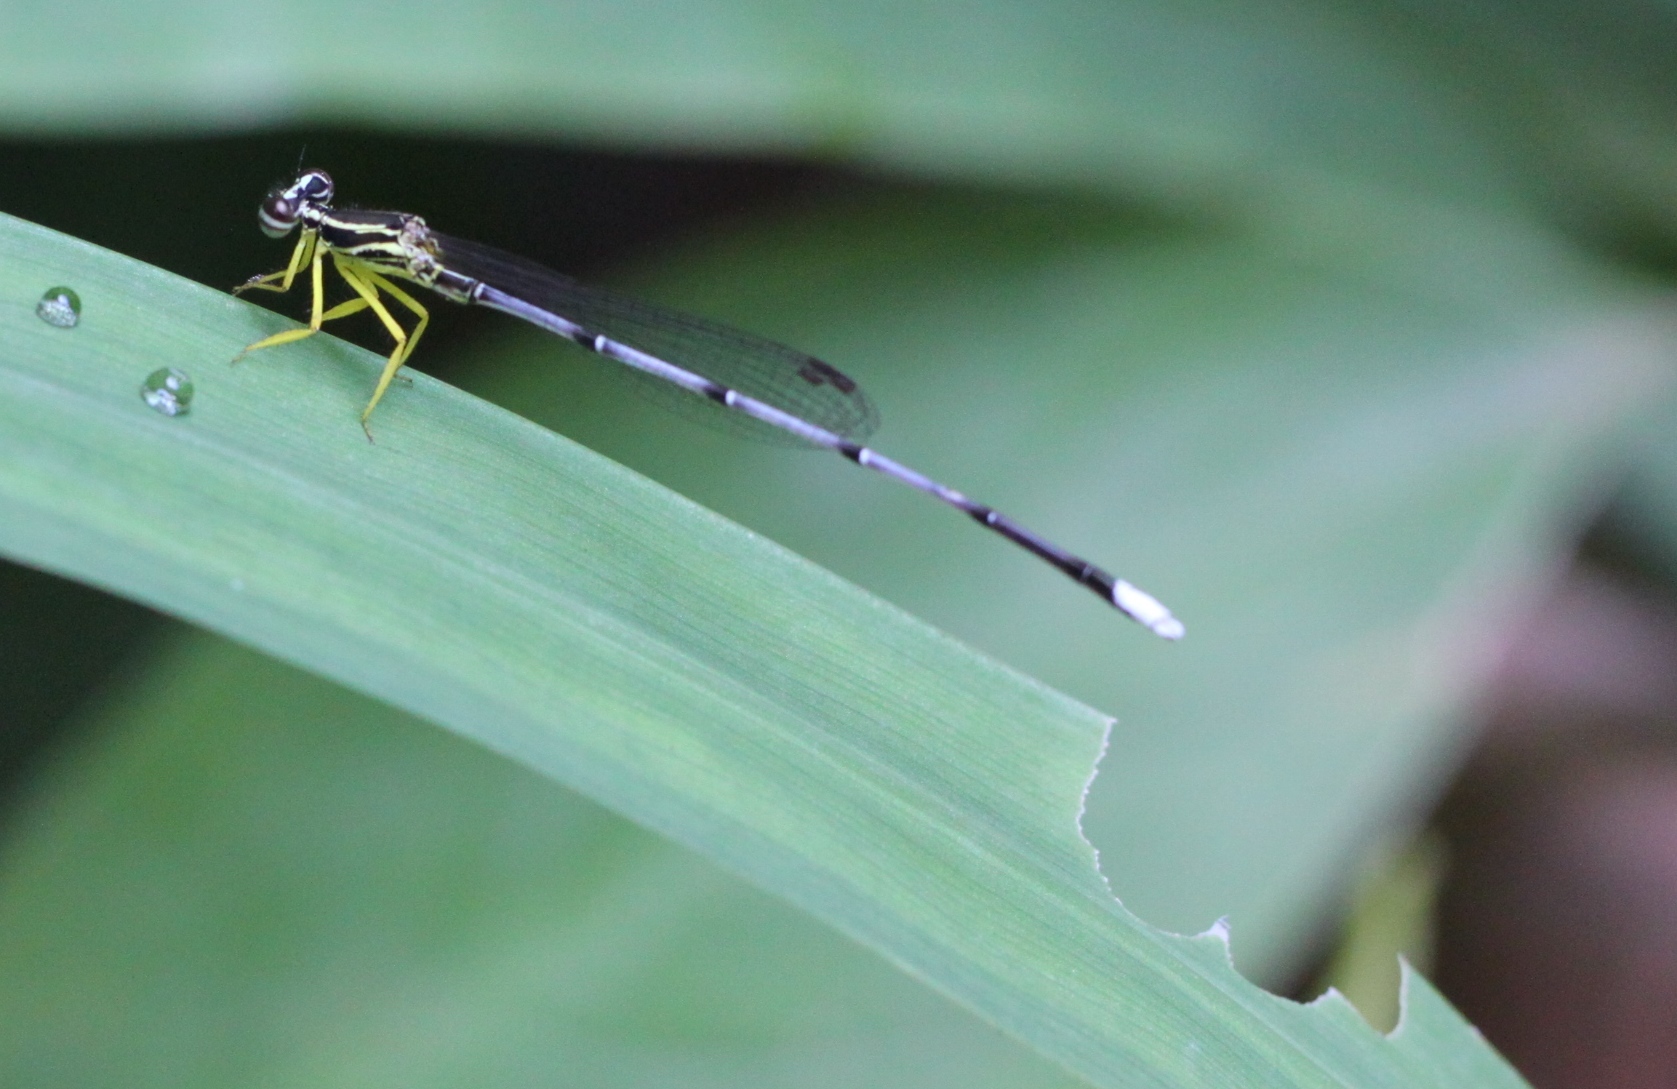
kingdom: Animalia
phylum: Arthropoda
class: Insecta
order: Odonata
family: Platycnemididae
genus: Copera
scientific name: Copera marginipes
